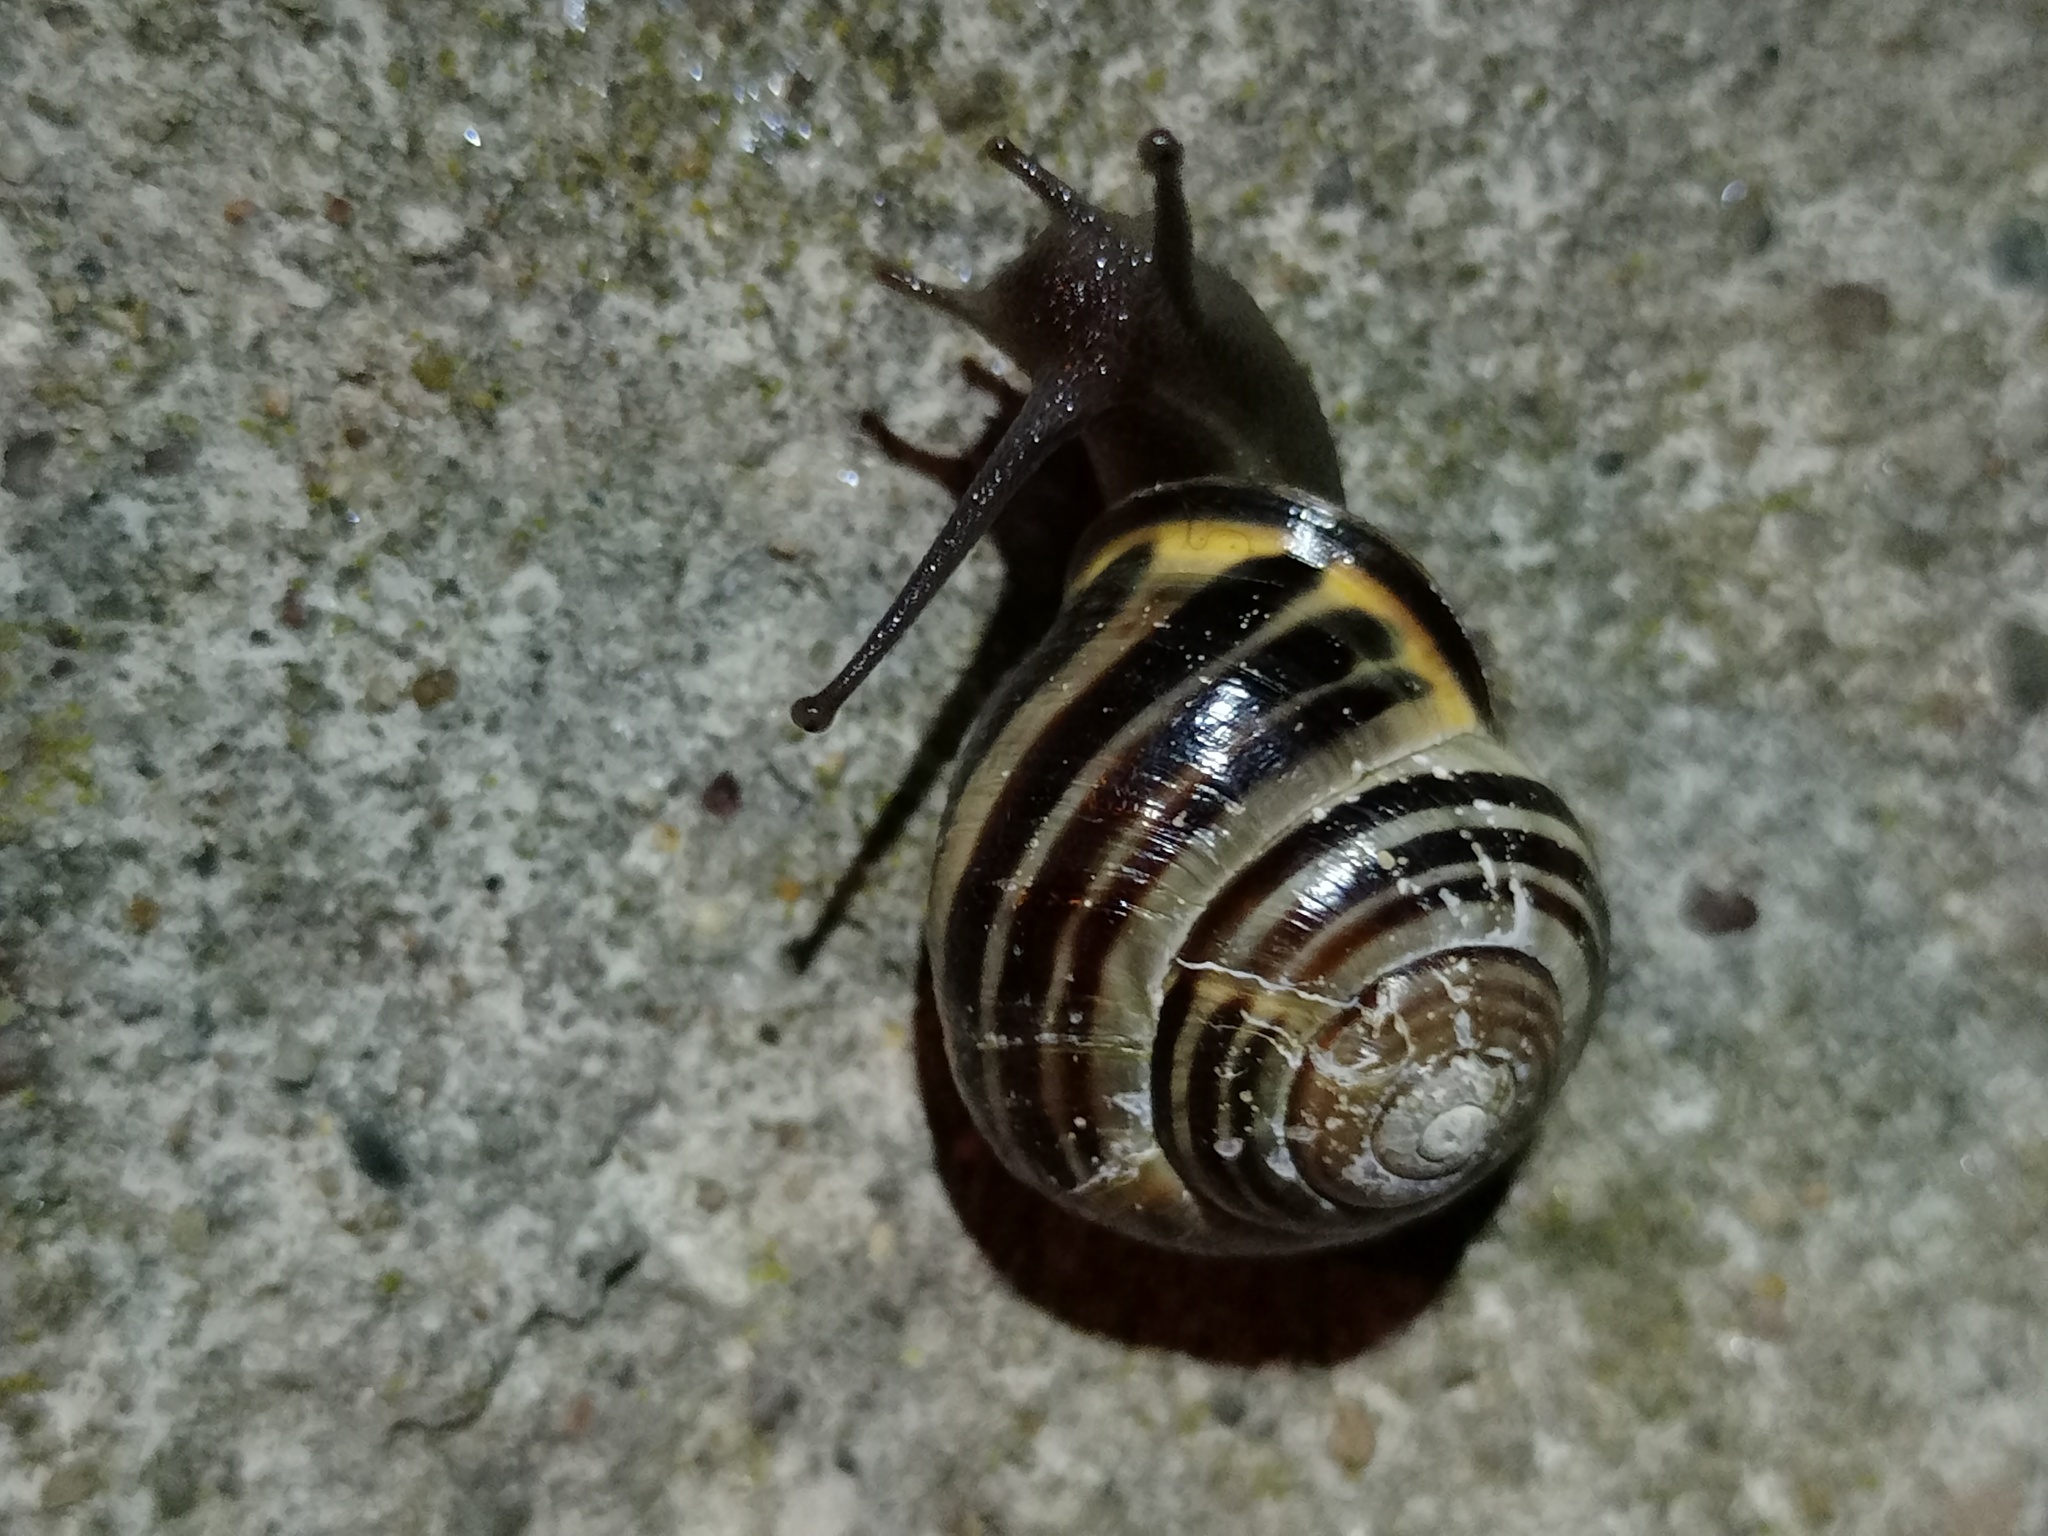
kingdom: Animalia
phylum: Mollusca
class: Gastropoda
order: Stylommatophora
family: Helicidae
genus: Cepaea
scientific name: Cepaea nemoralis
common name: Grovesnail
